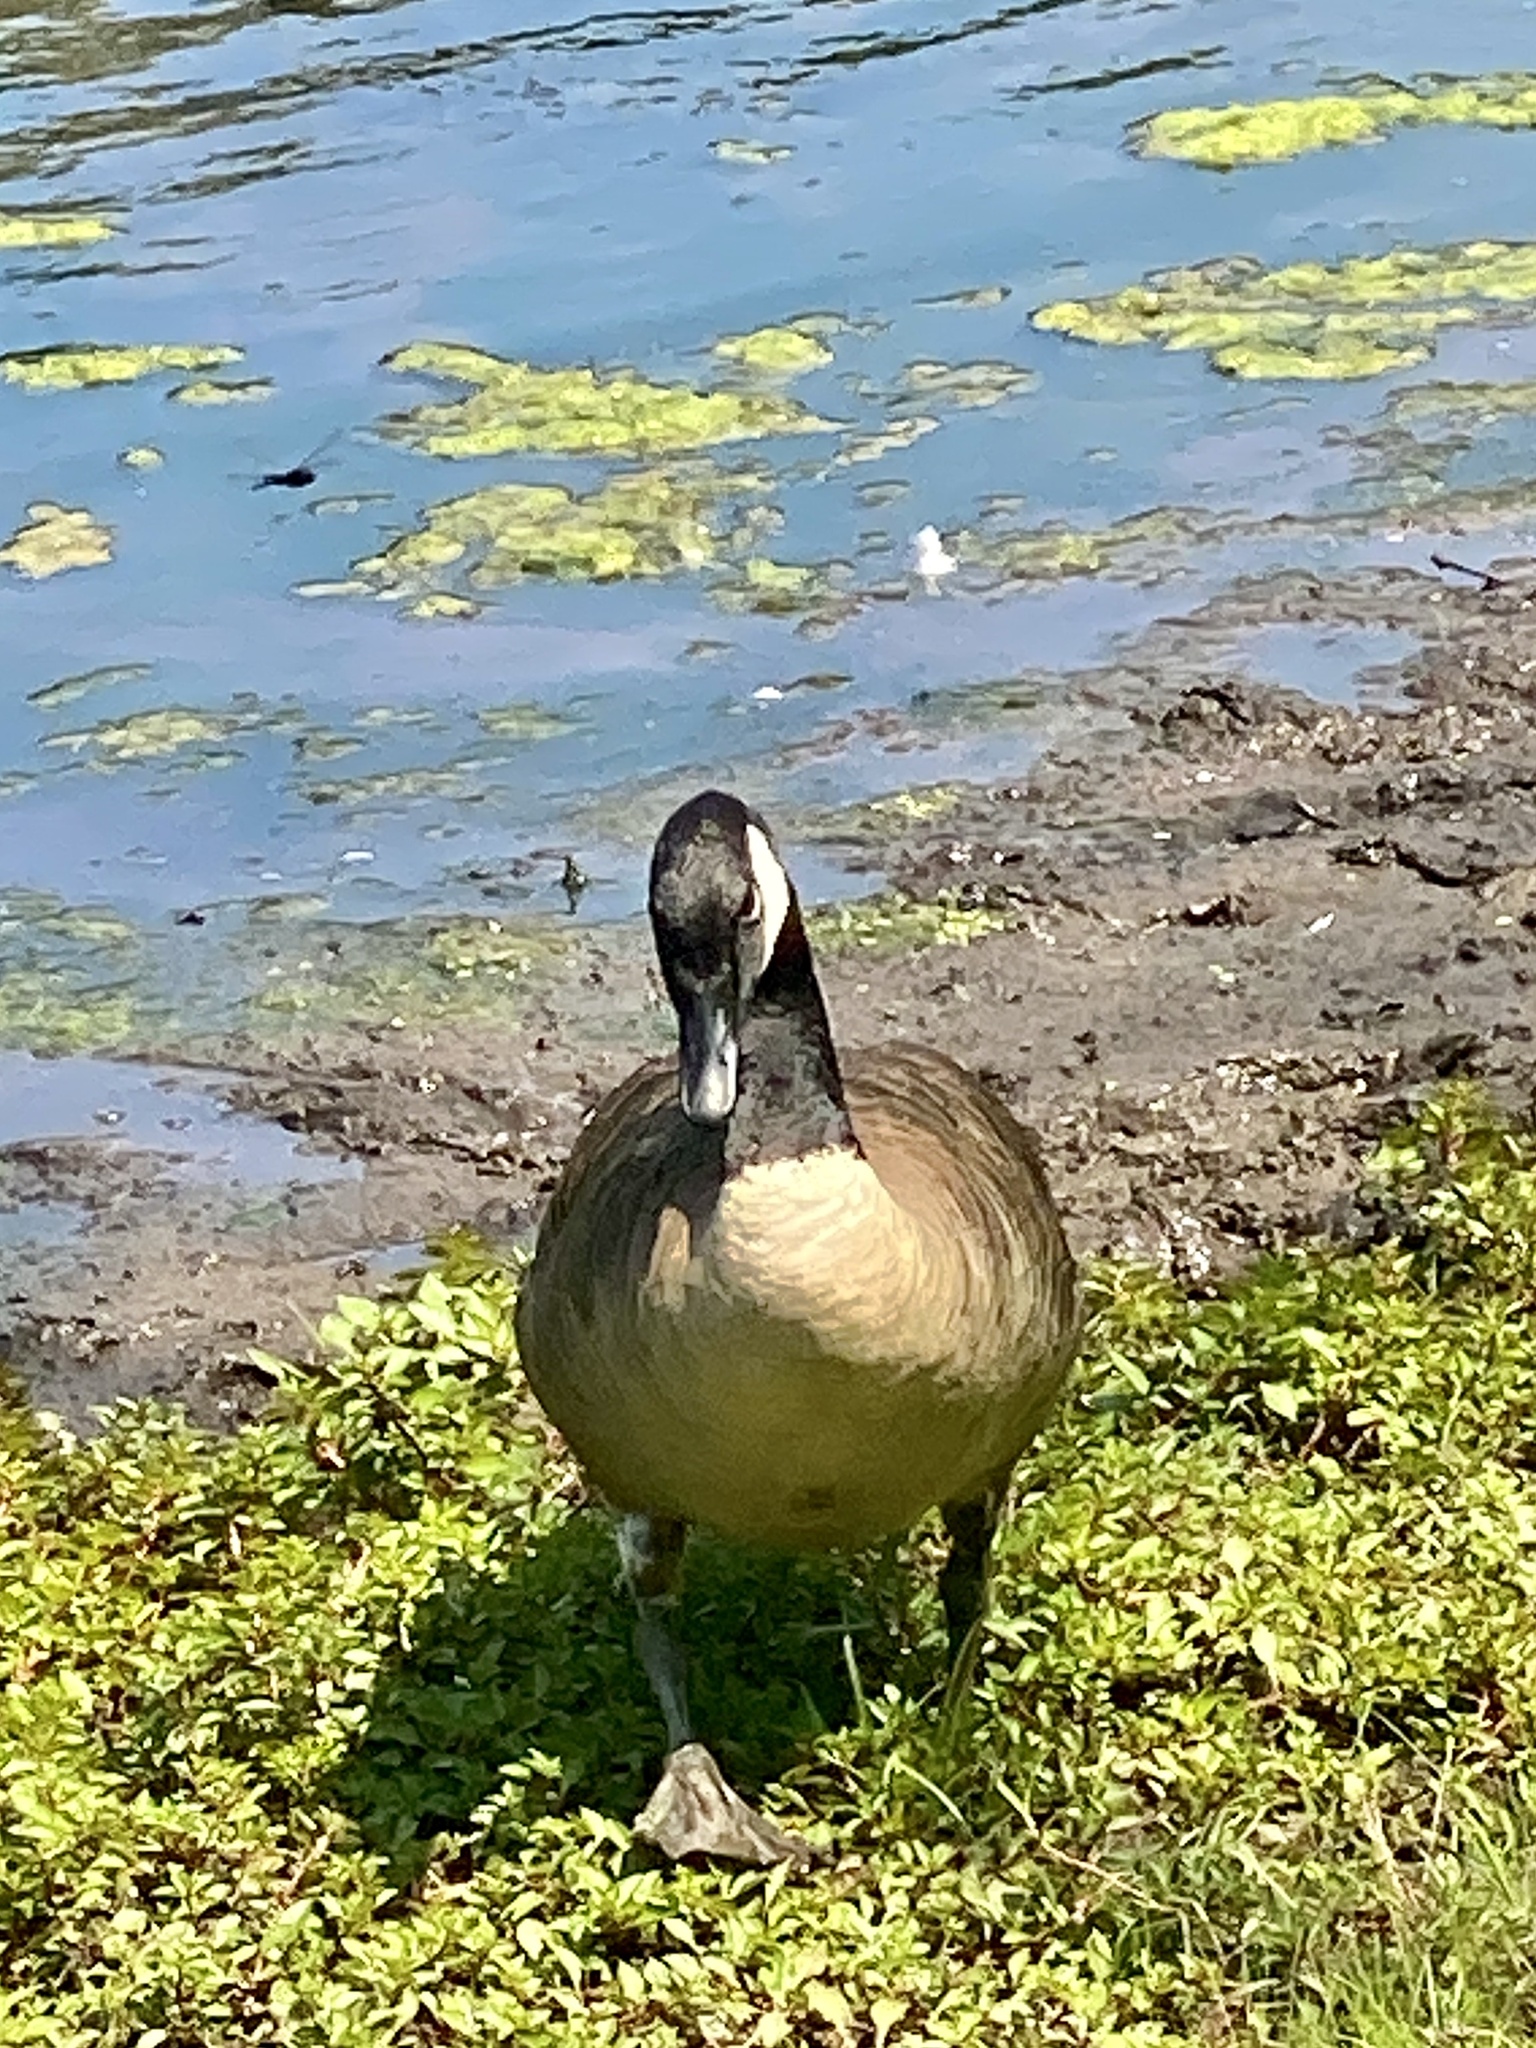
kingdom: Animalia
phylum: Chordata
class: Aves
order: Anseriformes
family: Anatidae
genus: Branta
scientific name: Branta canadensis
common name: Canada goose
